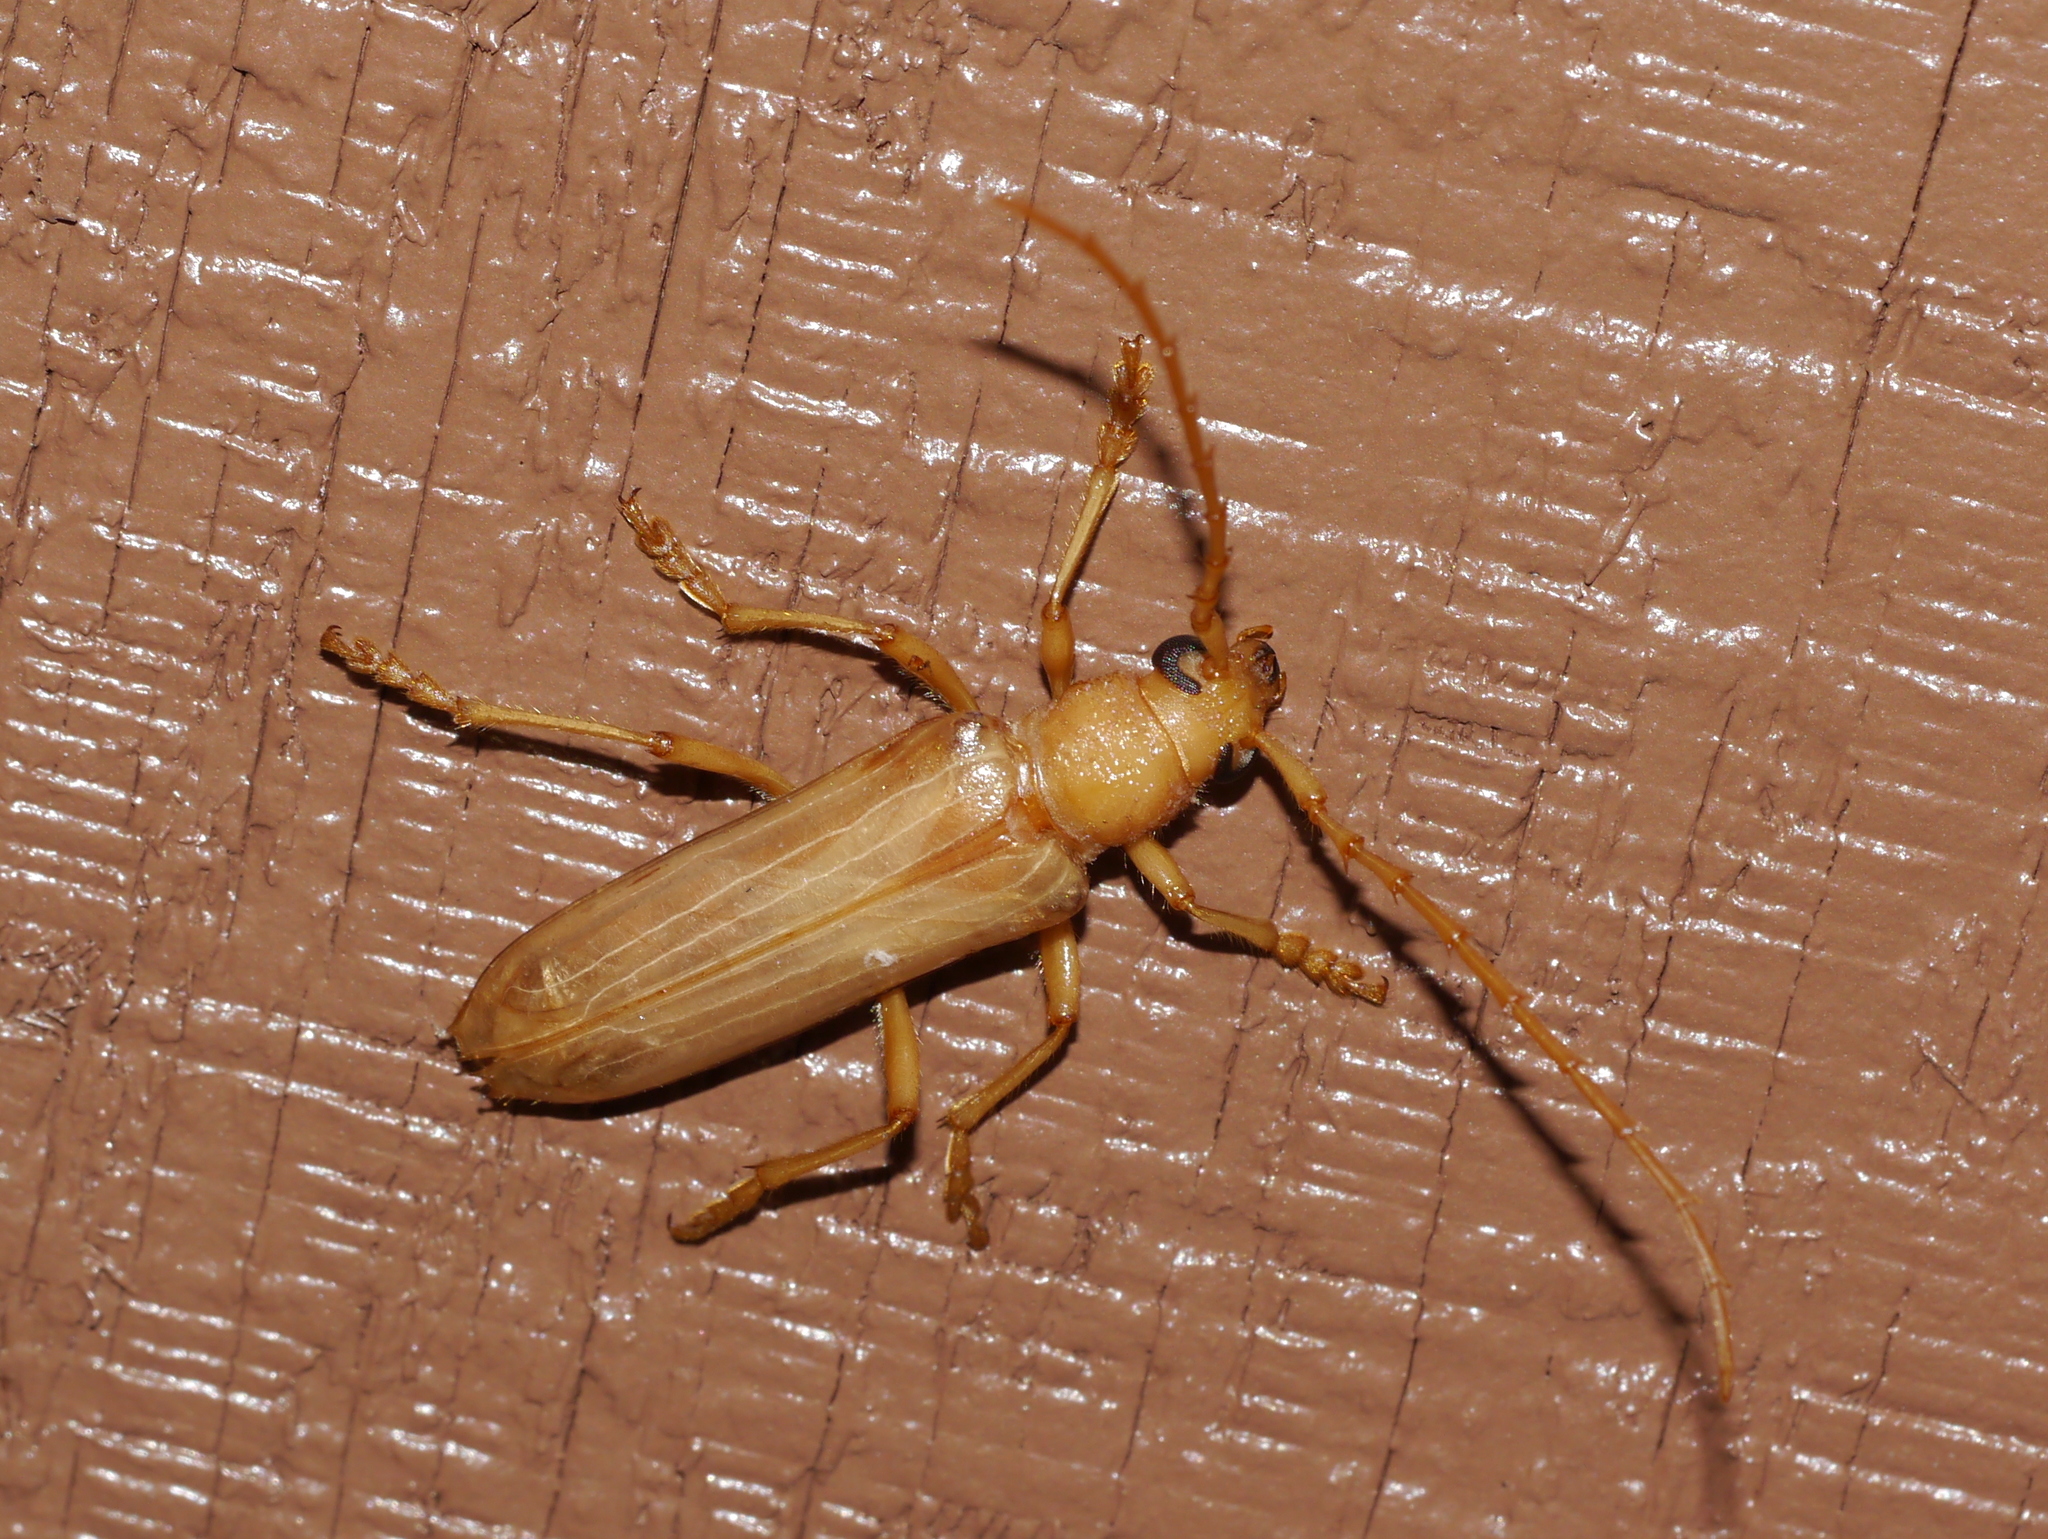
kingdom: Animalia
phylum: Arthropoda
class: Insecta
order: Coleoptera
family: Cerambycidae
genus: Atylostagma
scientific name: Atylostagma polita
